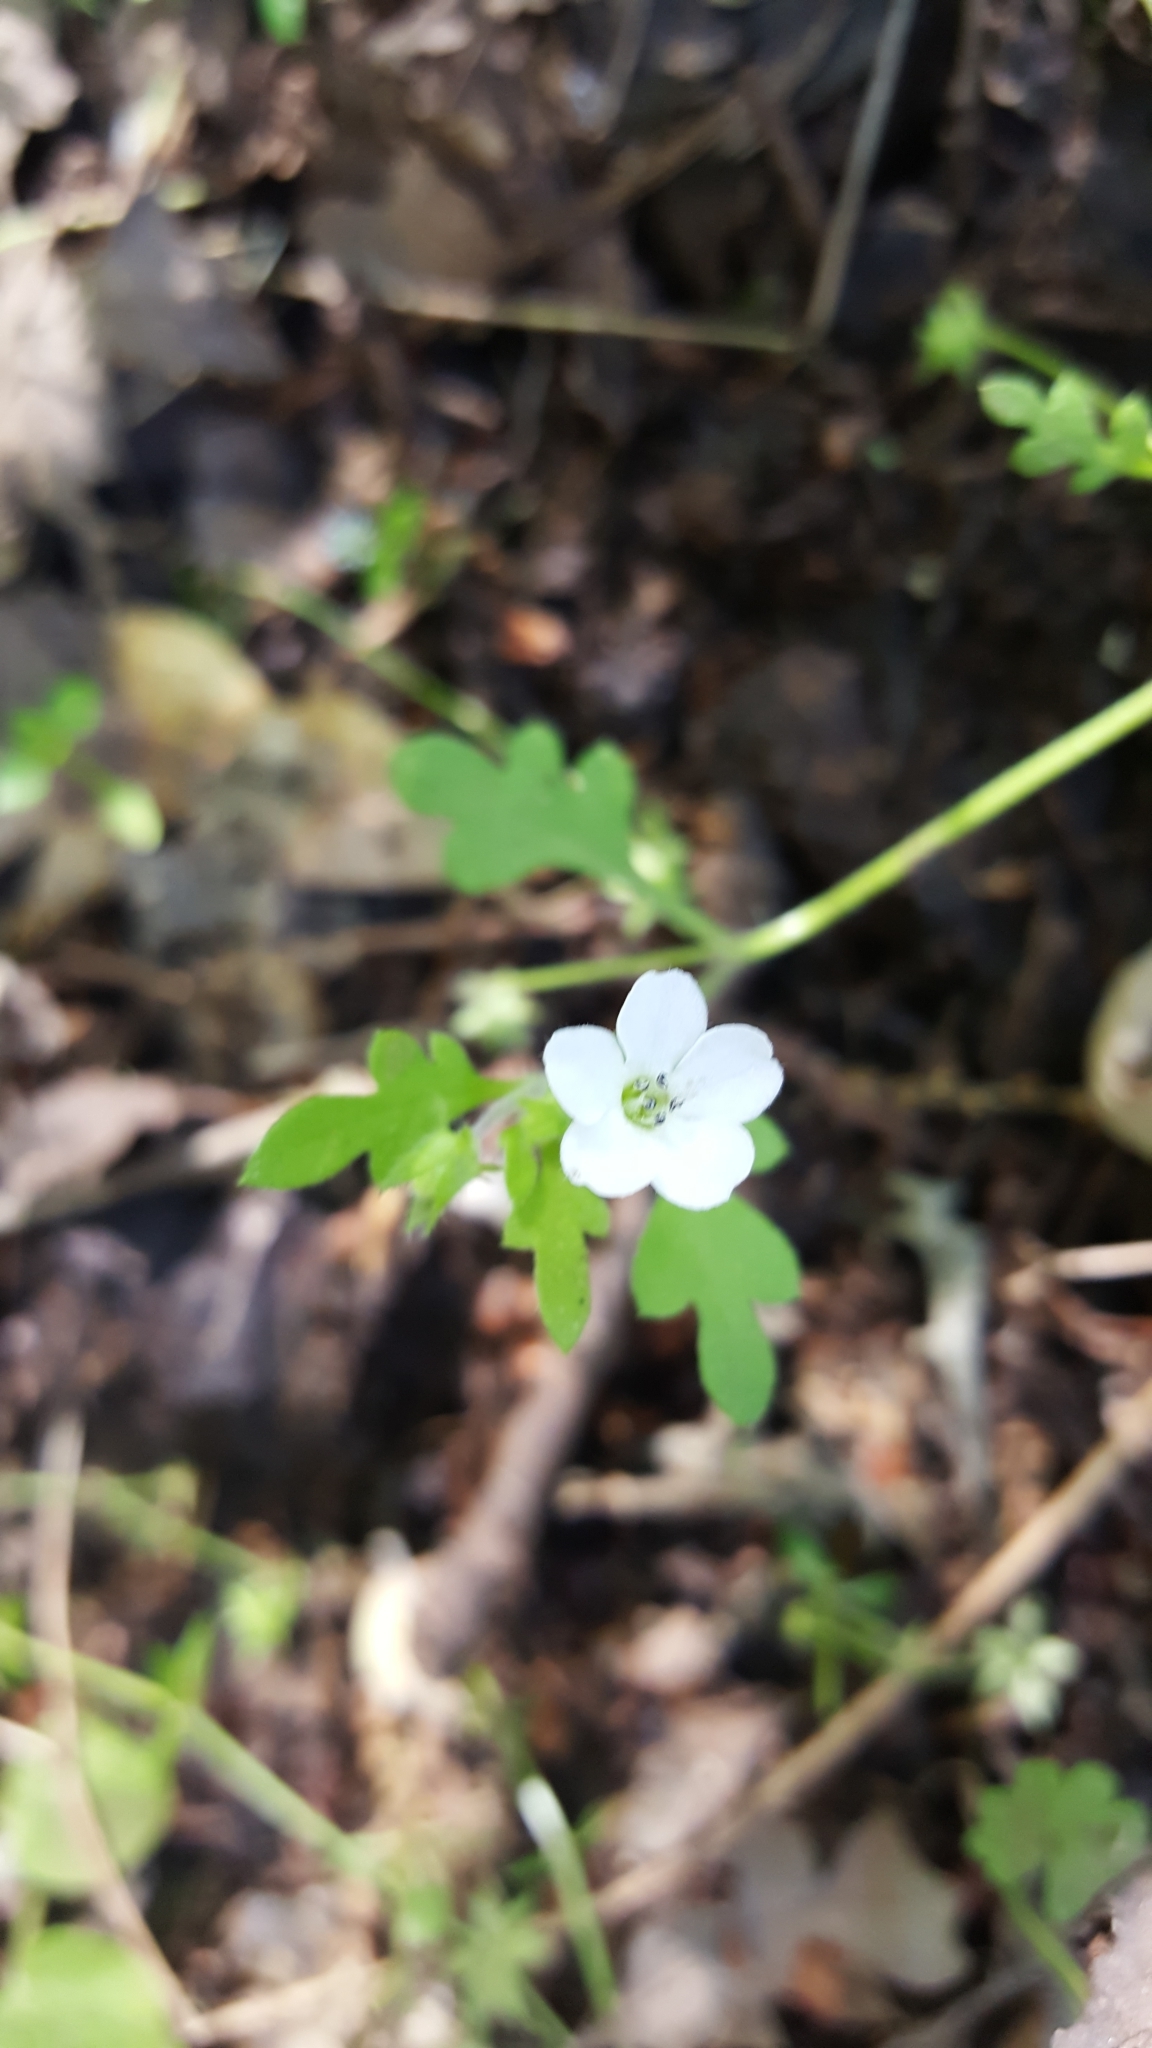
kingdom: Plantae
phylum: Tracheophyta
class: Magnoliopsida
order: Boraginales
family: Hydrophyllaceae
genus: Nemophila
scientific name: Nemophila heterophylla
